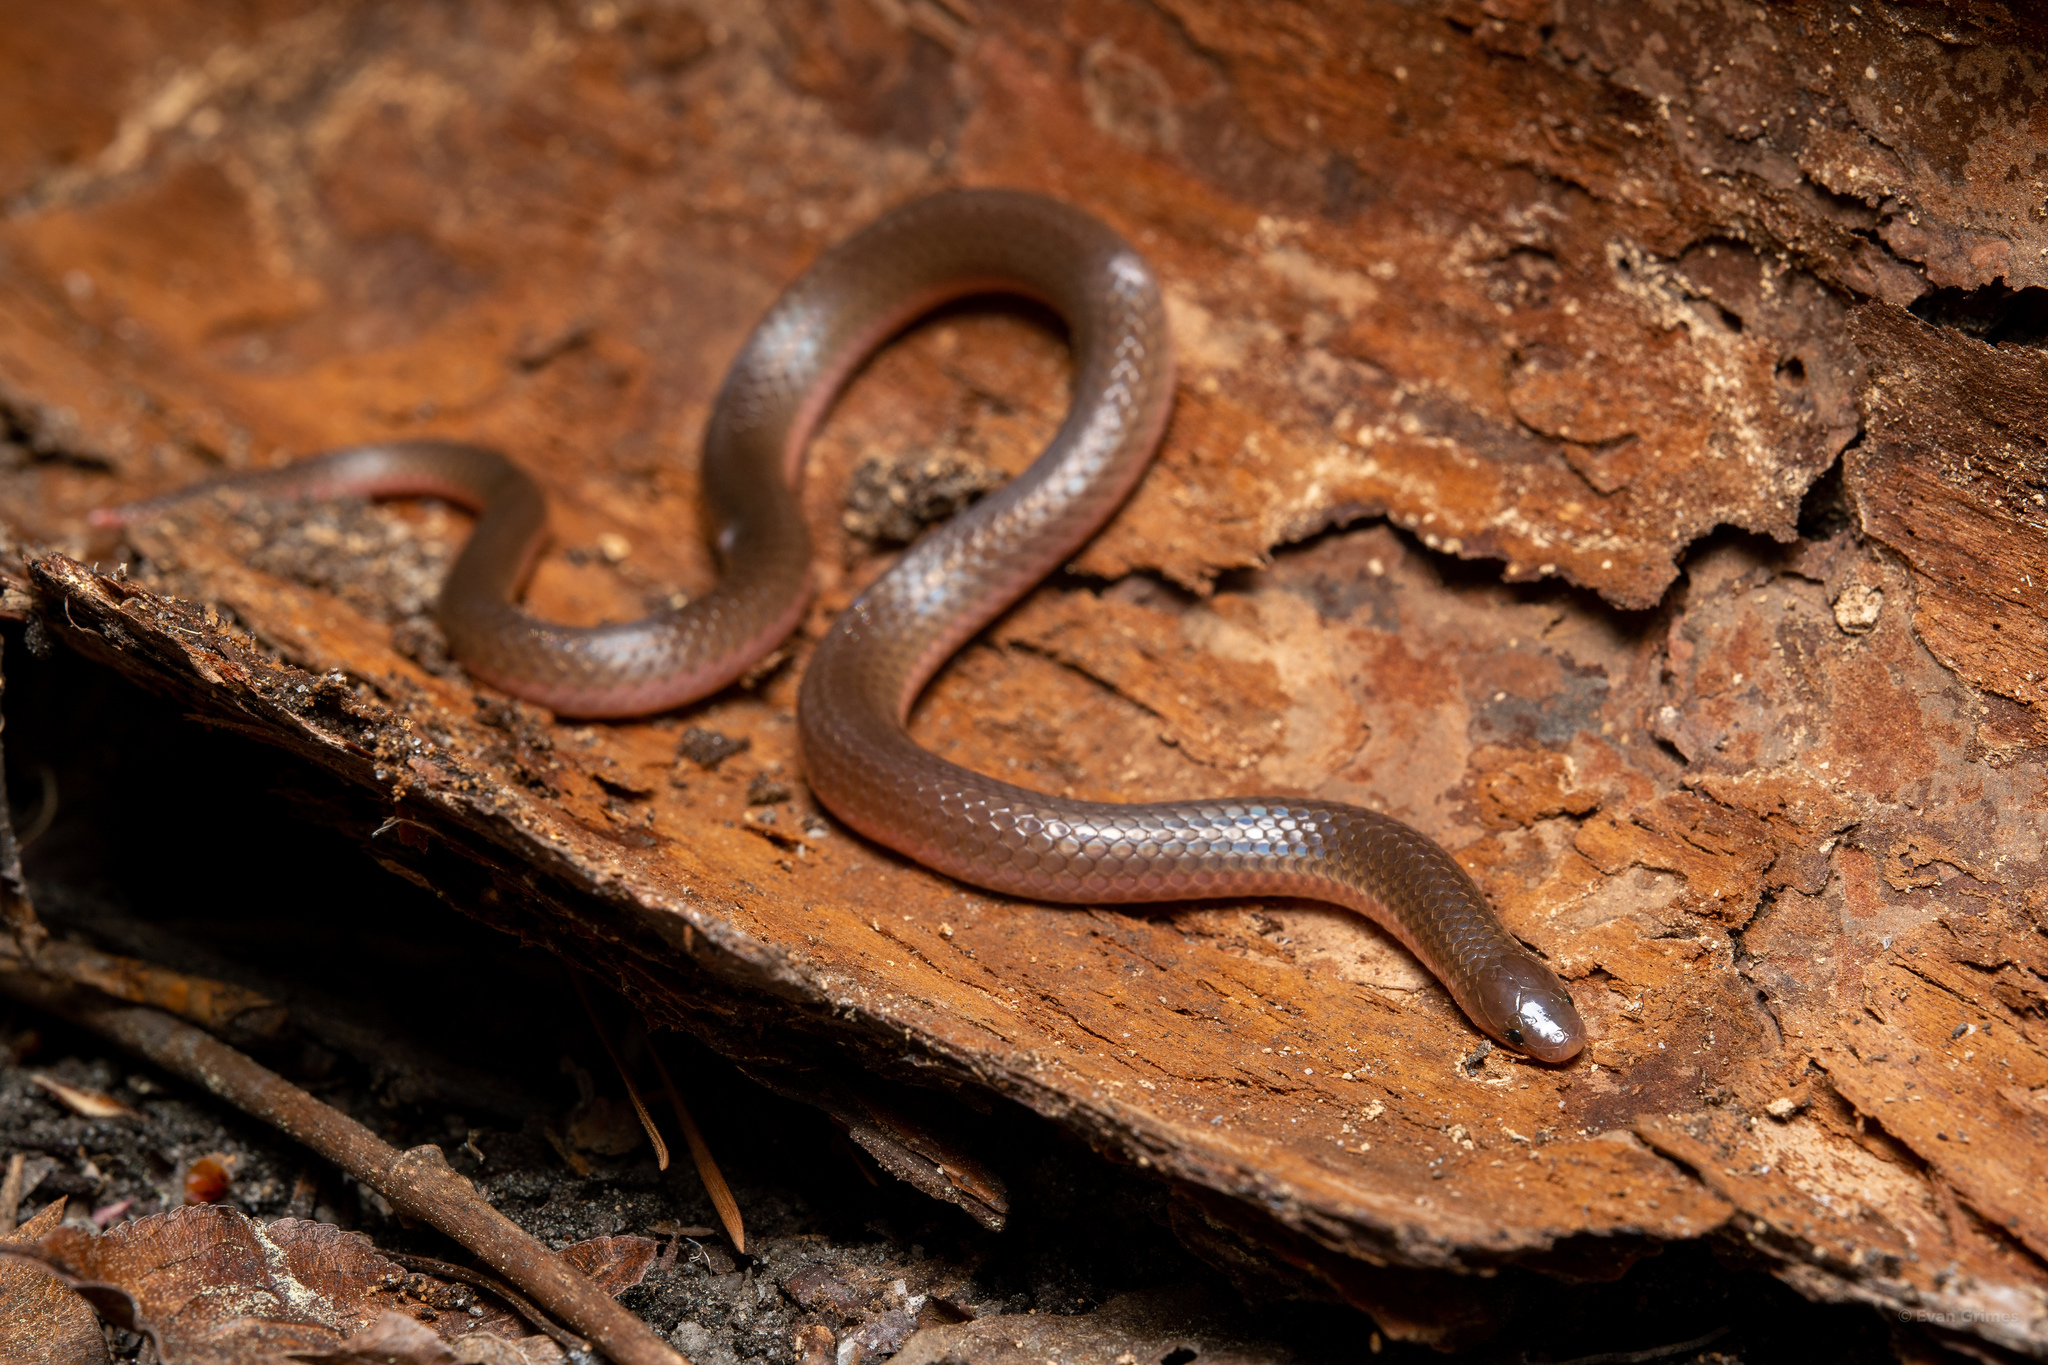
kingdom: Animalia
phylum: Chordata
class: Squamata
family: Colubridae
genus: Carphophis
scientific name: Carphophis amoenus
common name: Eastern worm snake
